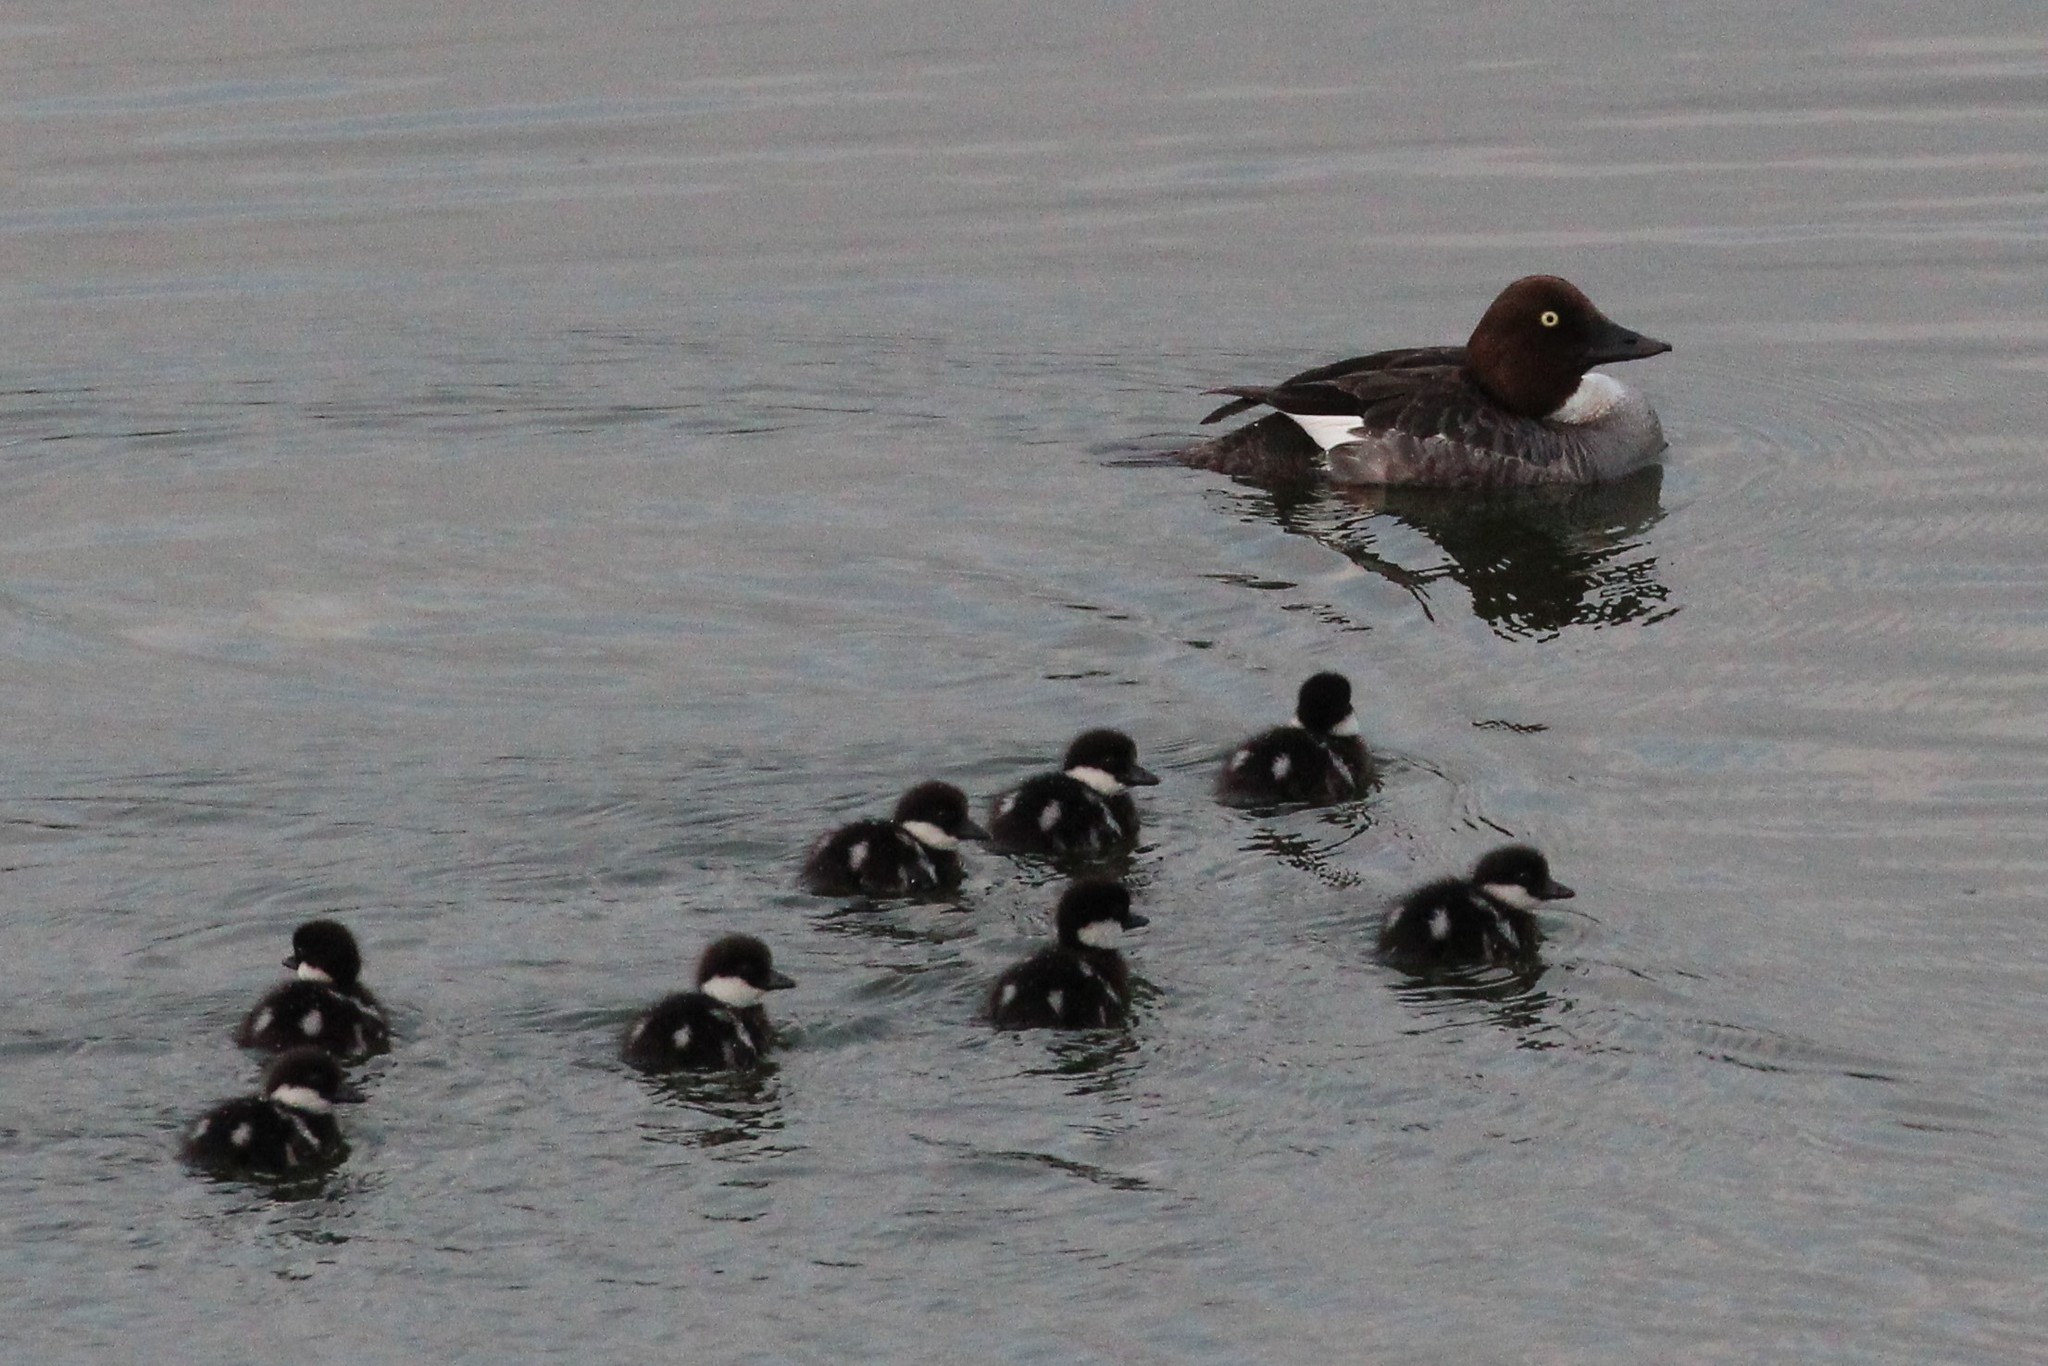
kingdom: Animalia
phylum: Chordata
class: Aves
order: Anseriformes
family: Anatidae
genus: Bucephala
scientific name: Bucephala clangula
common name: Common goldeneye
